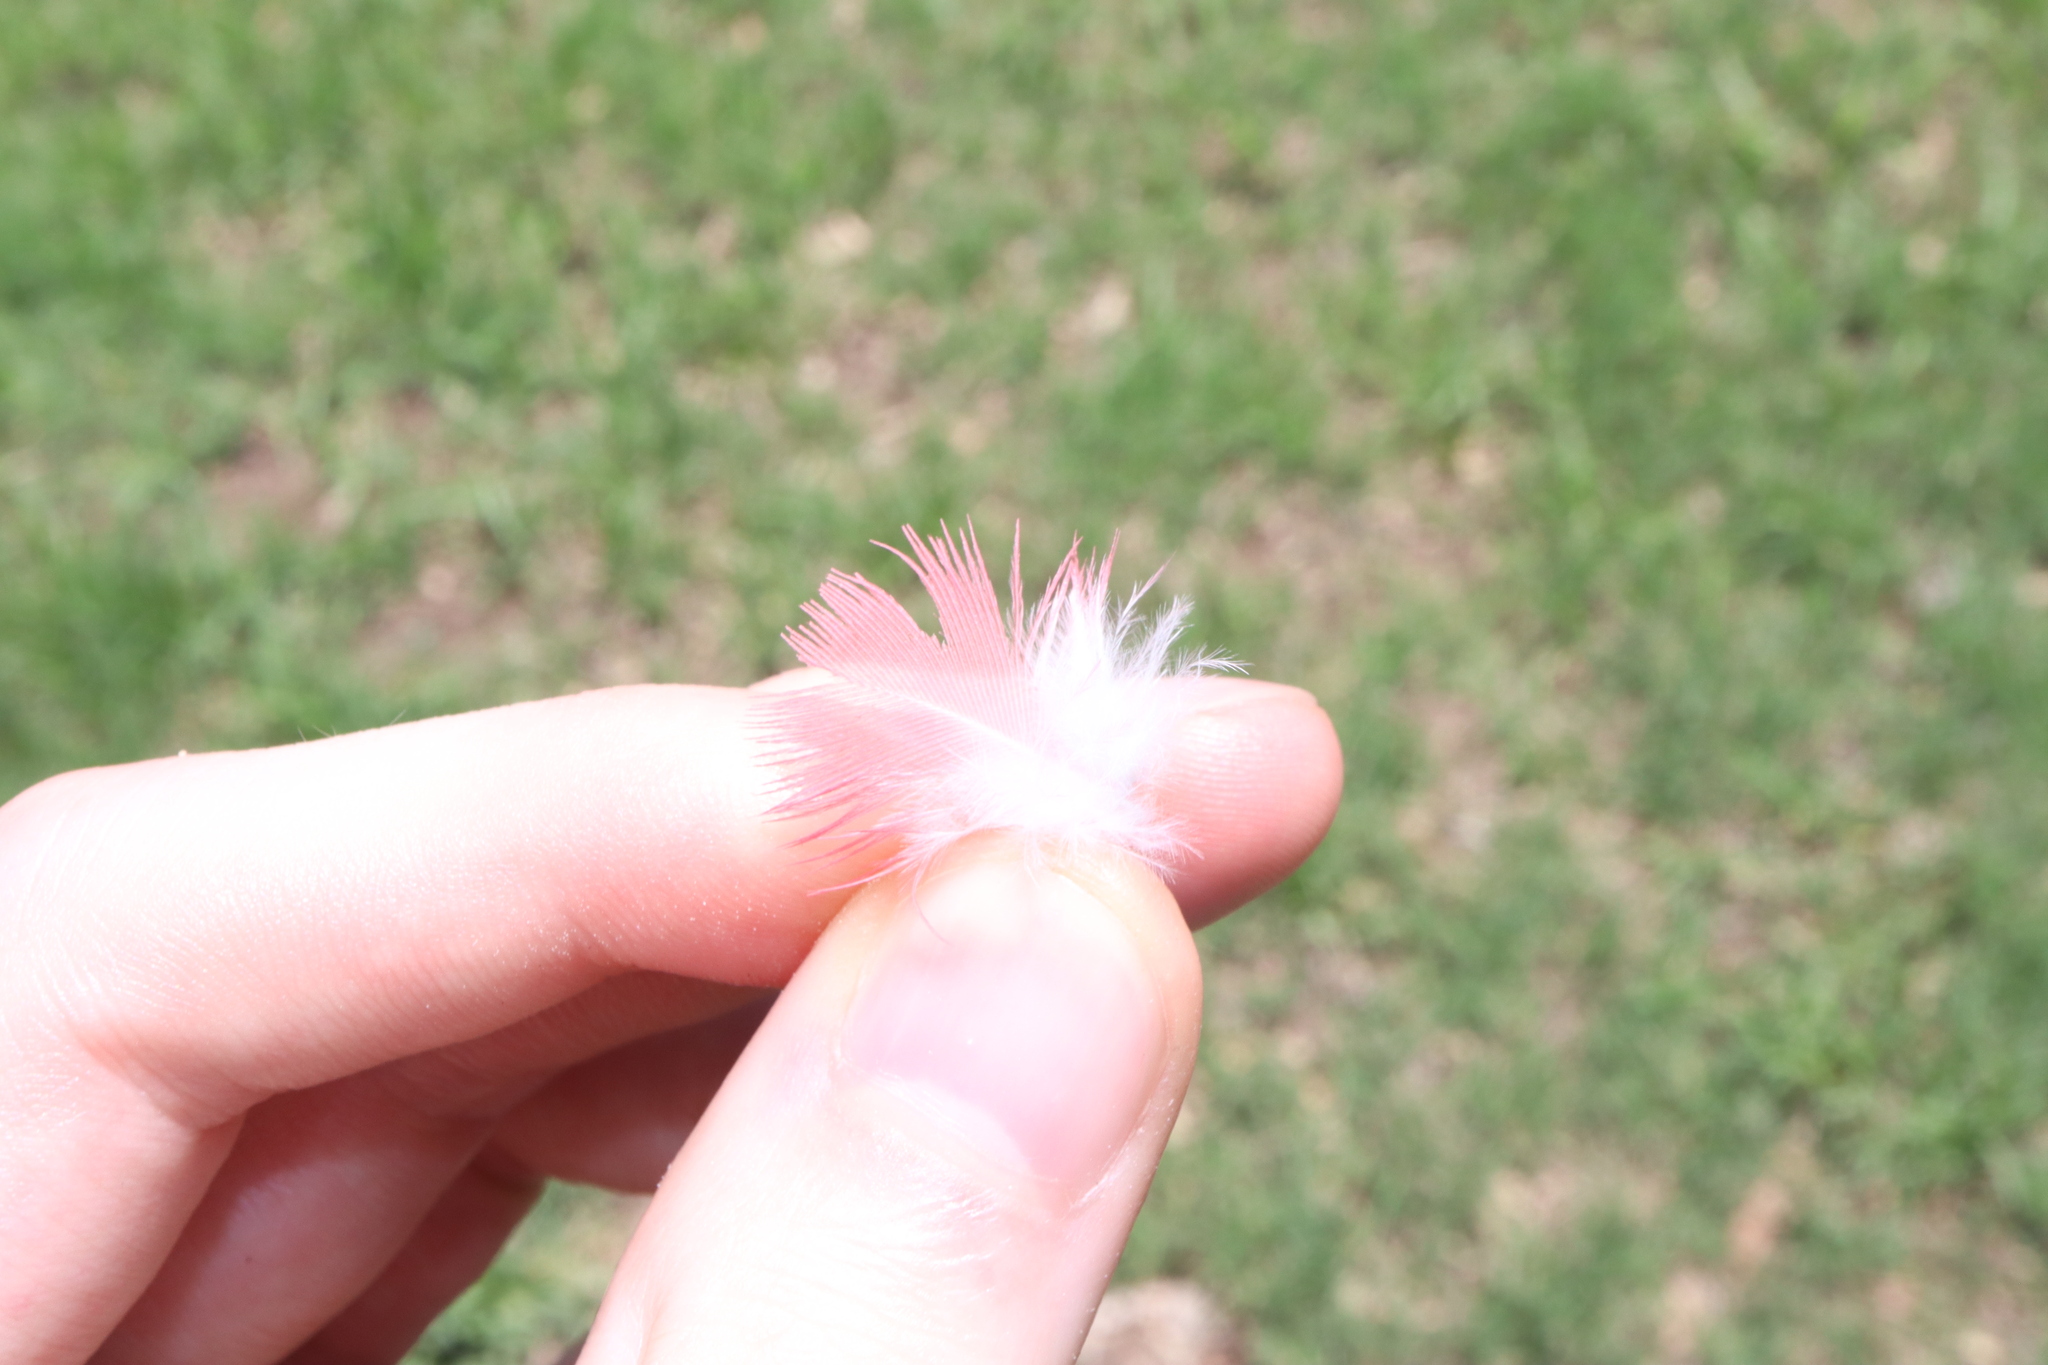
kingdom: Animalia
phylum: Chordata
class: Aves
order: Psittaciformes
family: Psittacidae
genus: Eolophus
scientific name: Eolophus roseicapilla
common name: Galah
